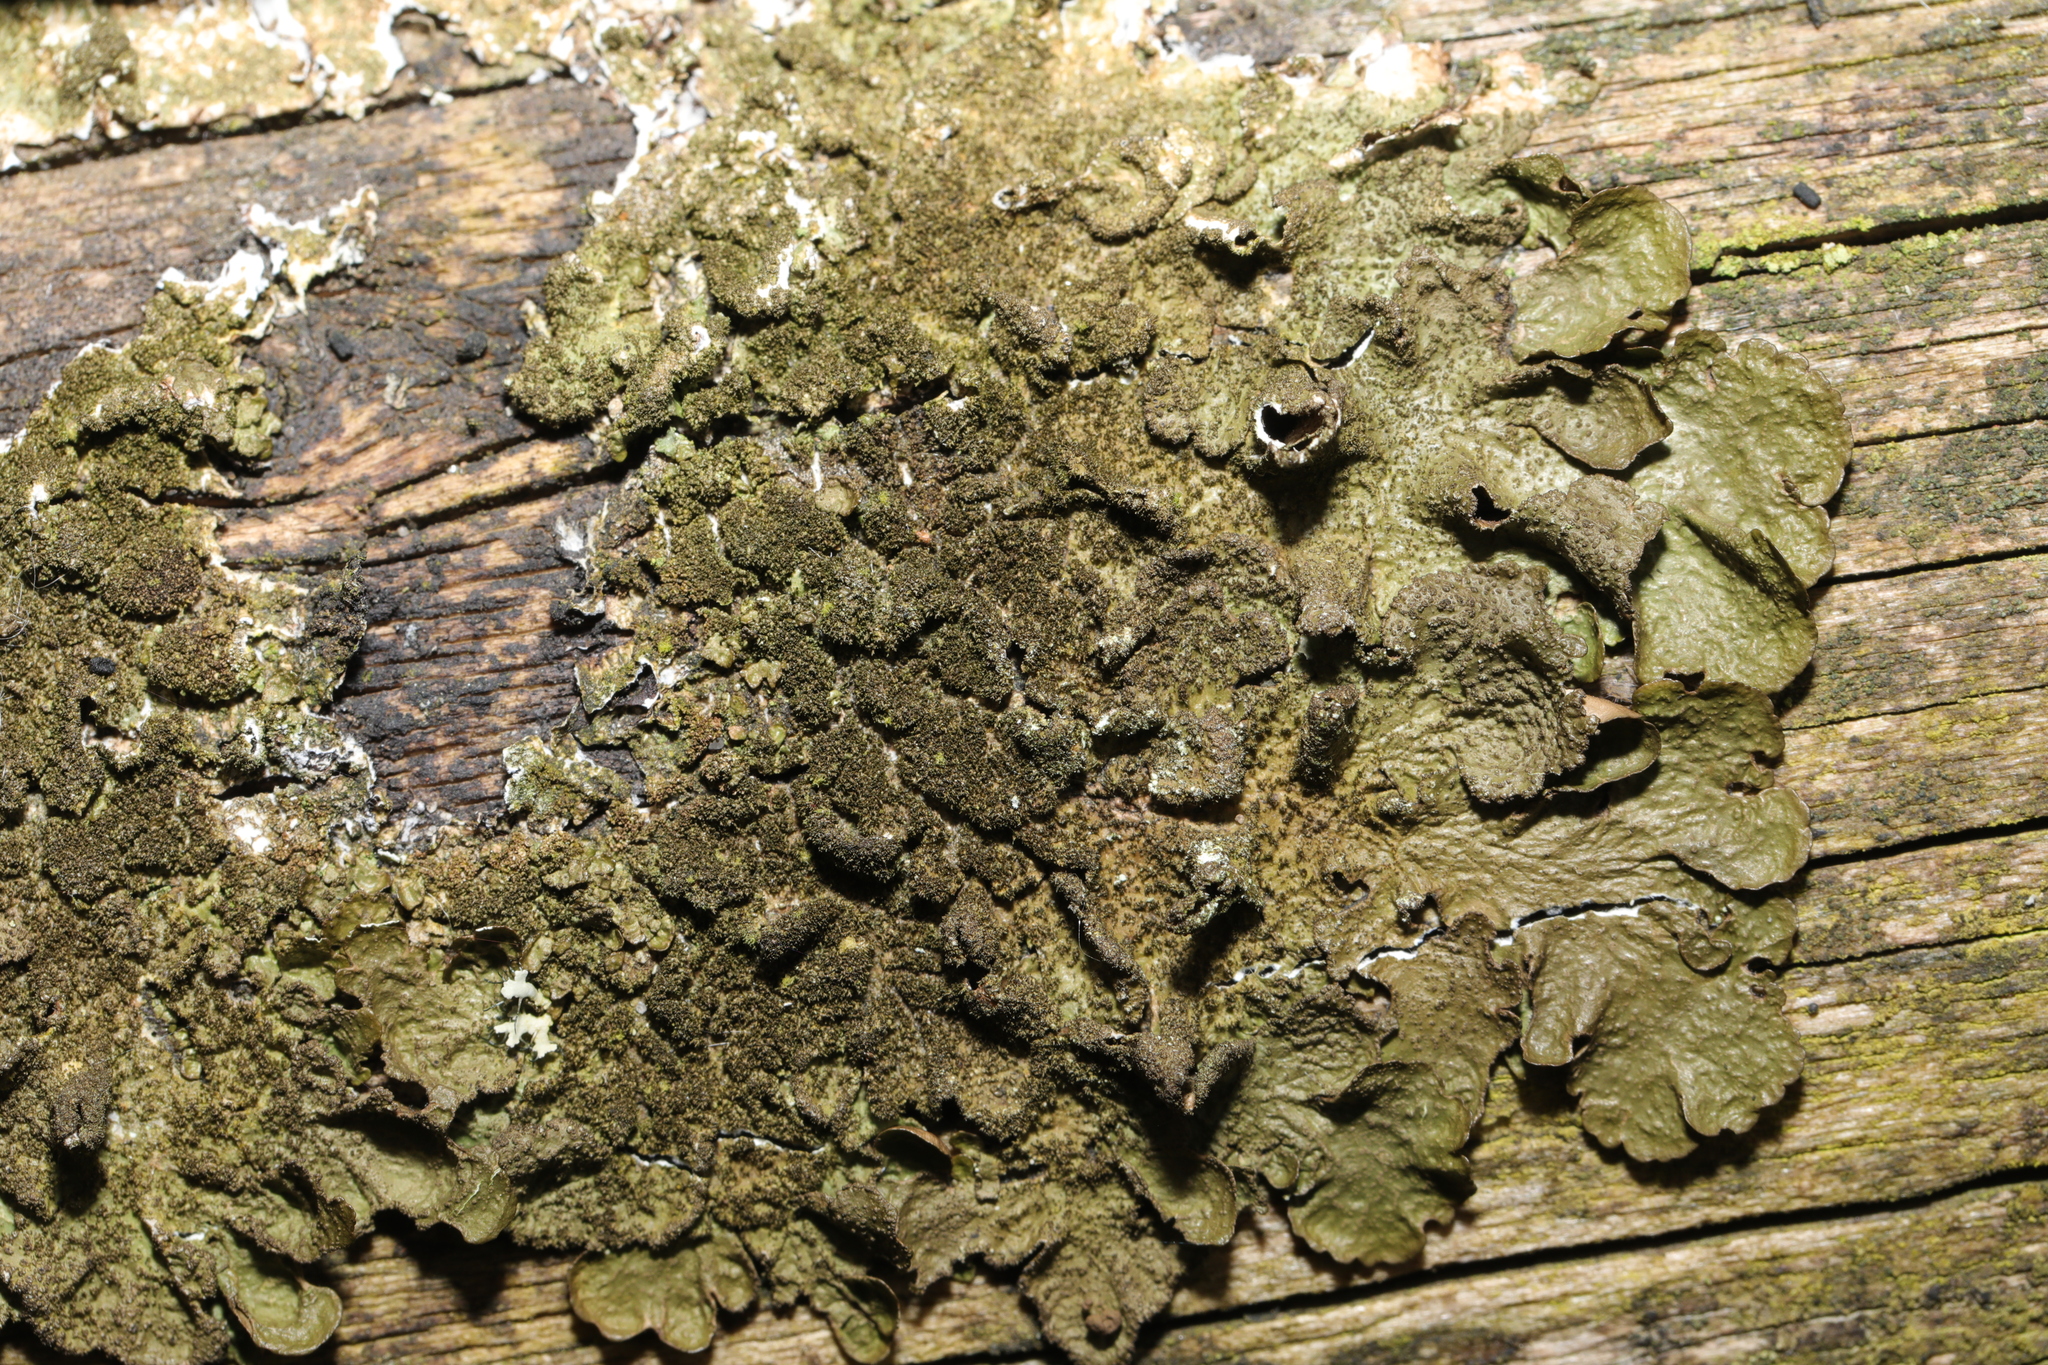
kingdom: Fungi
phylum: Ascomycota
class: Lecanoromycetes
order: Lecanorales
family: Parmeliaceae
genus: Melanelixia
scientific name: Melanelixia subaurifera
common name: Abraded camouflage lichen
